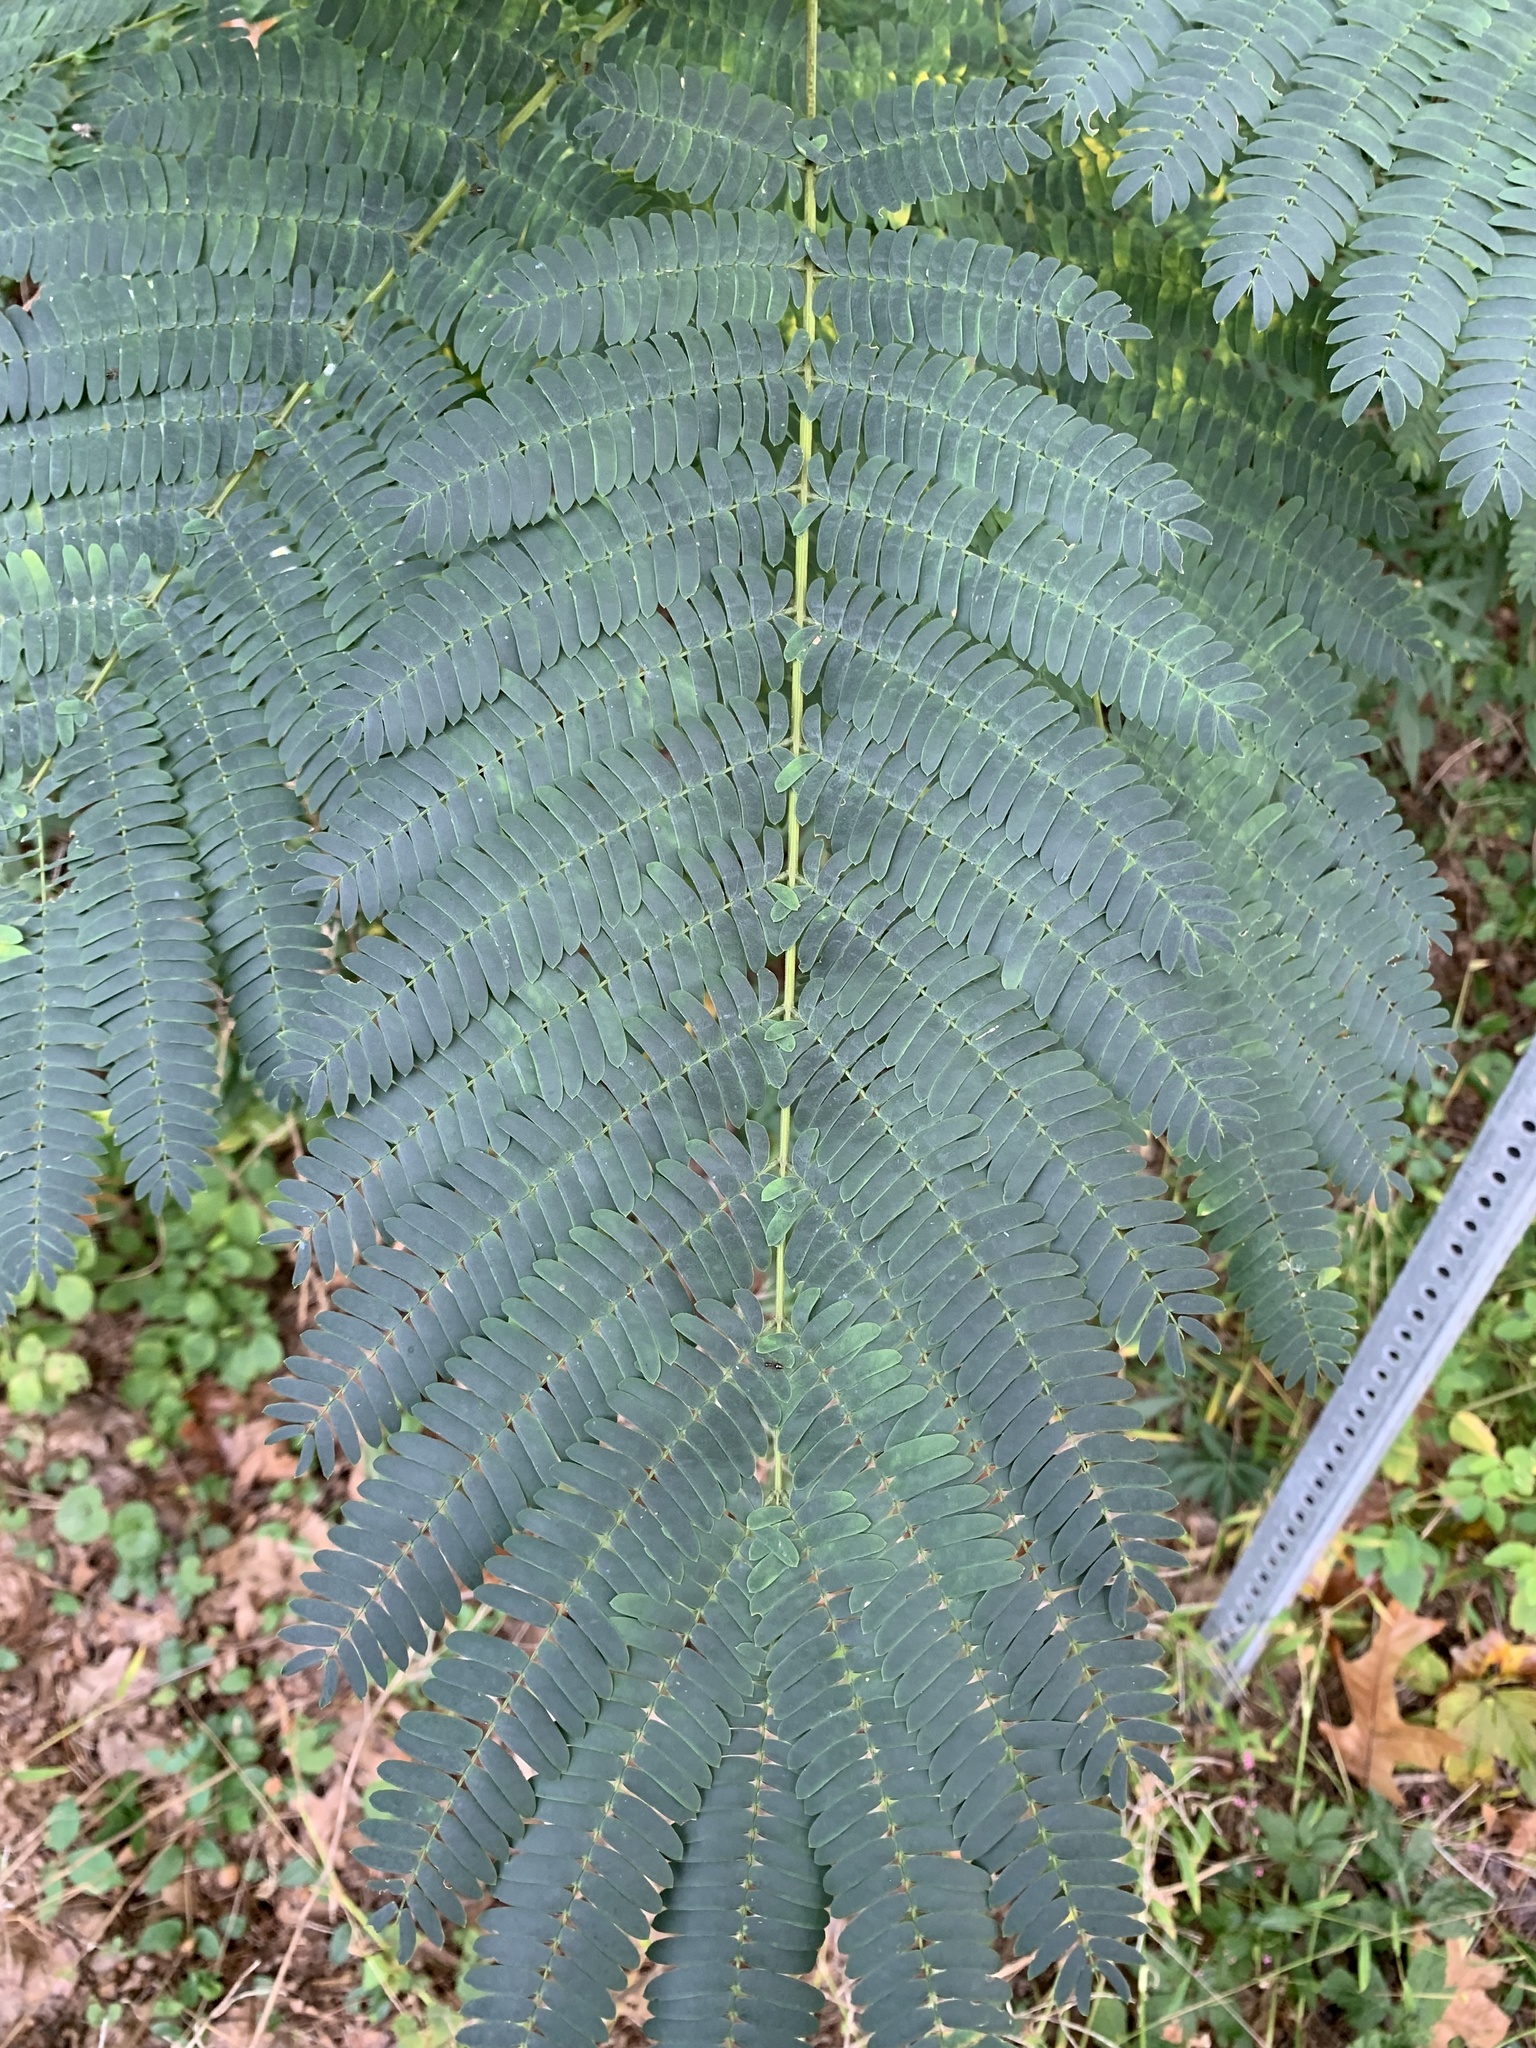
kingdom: Plantae
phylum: Tracheophyta
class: Magnoliopsida
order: Fabales
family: Fabaceae
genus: Albizia
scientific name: Albizia julibrissin
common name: Silktree
